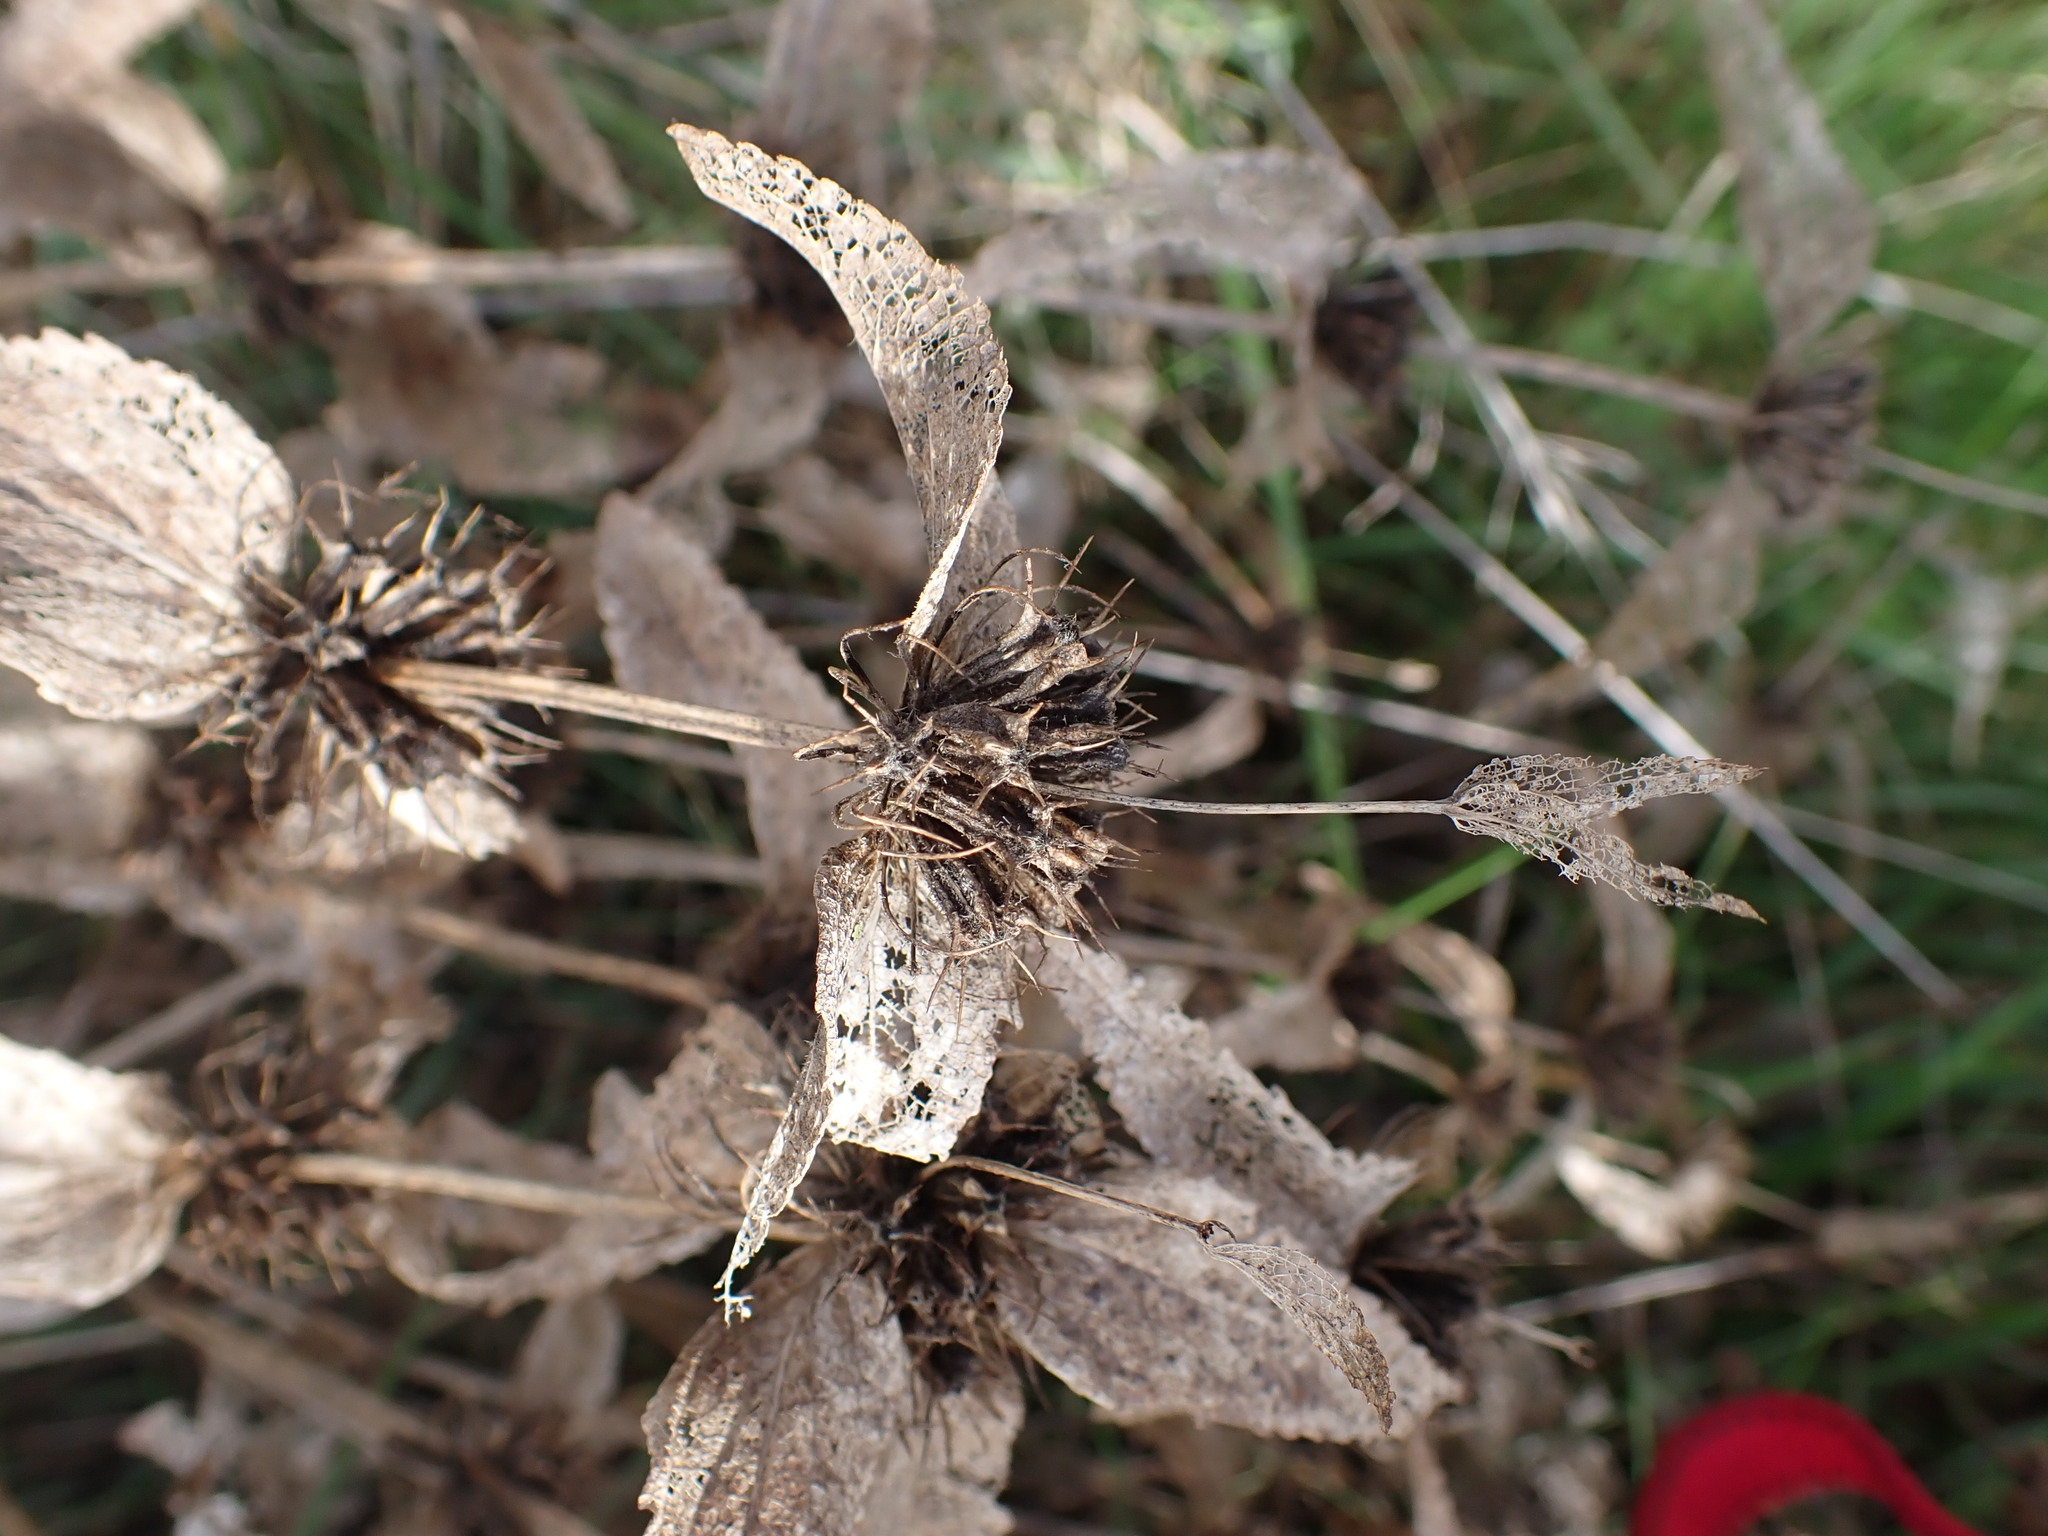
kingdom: Plantae
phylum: Tracheophyta
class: Magnoliopsida
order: Lamiales
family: Lamiaceae
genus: Phlomis
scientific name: Phlomis herba-venti
